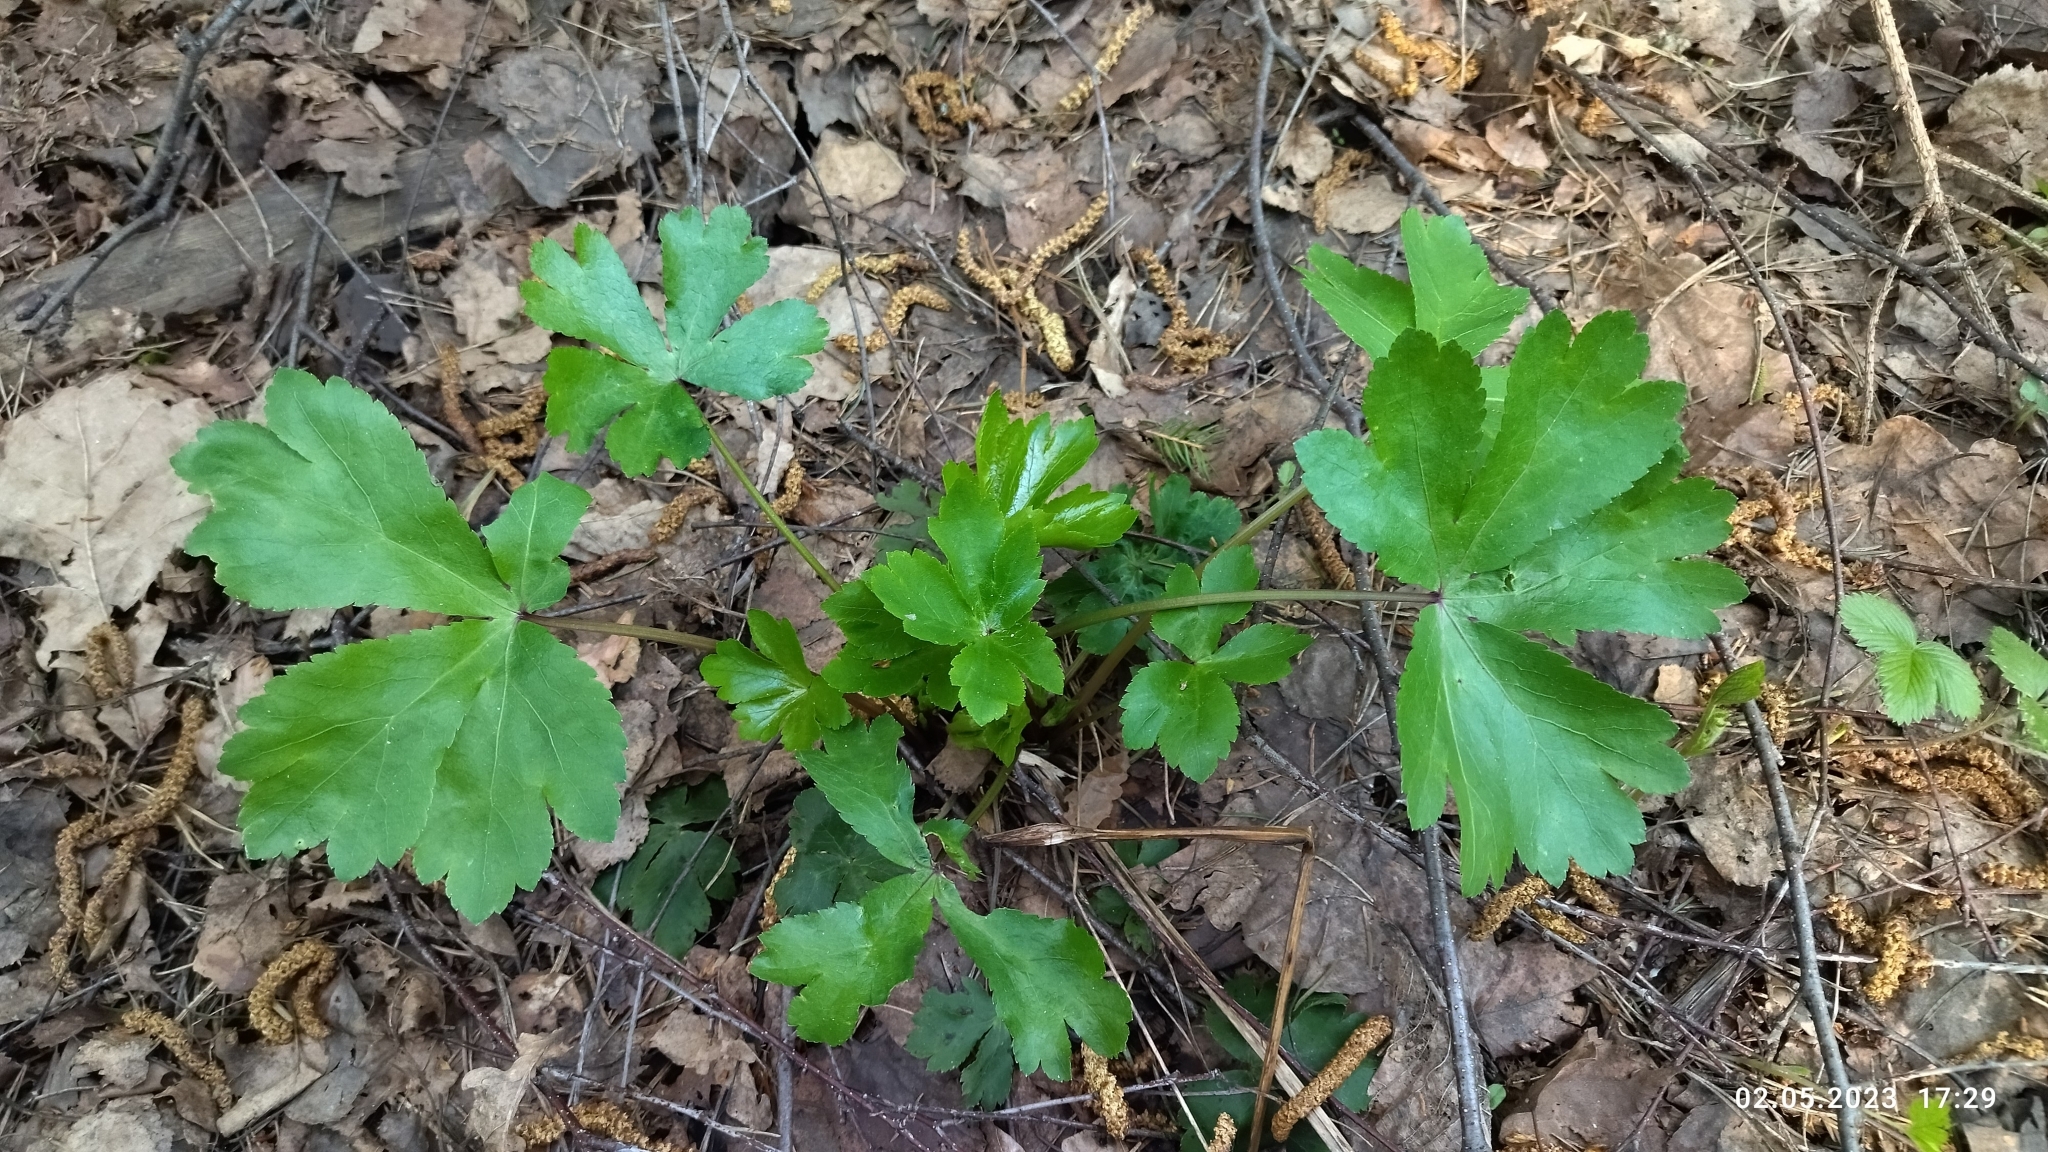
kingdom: Plantae
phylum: Tracheophyta
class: Magnoliopsida
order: Apiales
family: Apiaceae
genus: Sanicula
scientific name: Sanicula europaea
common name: Sanicle
